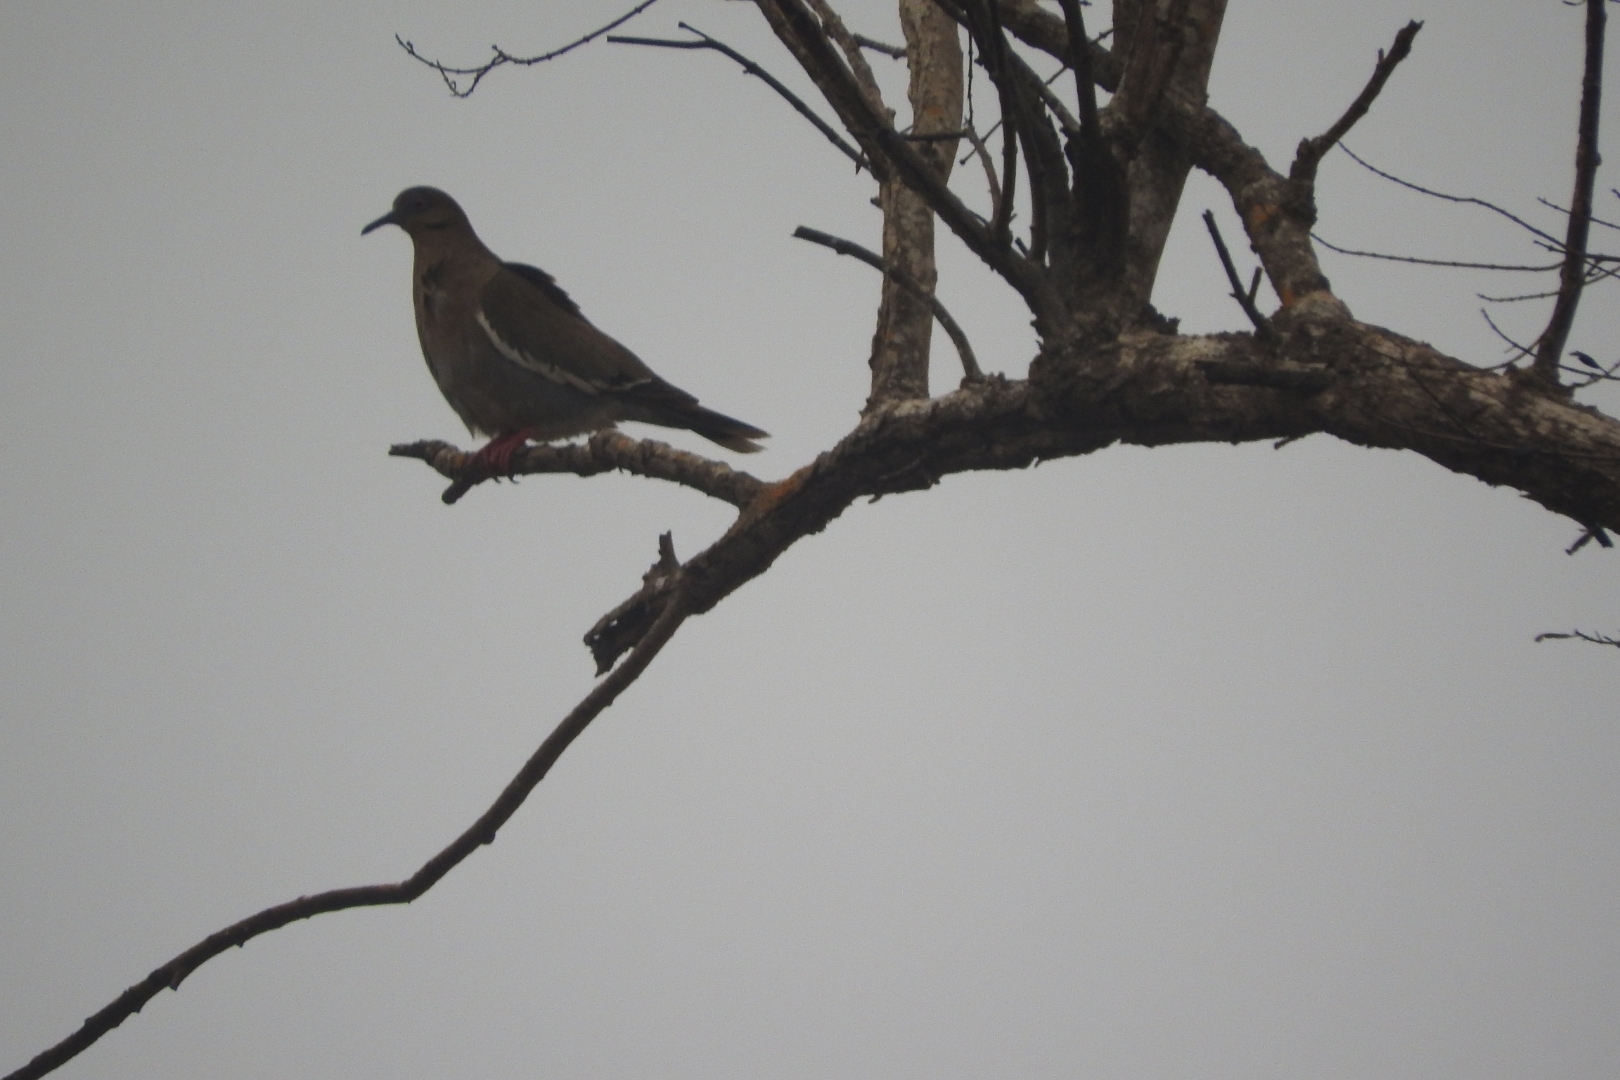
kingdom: Animalia
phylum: Chordata
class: Aves
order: Columbiformes
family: Columbidae
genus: Zenaida
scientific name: Zenaida asiatica
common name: White-winged dove
